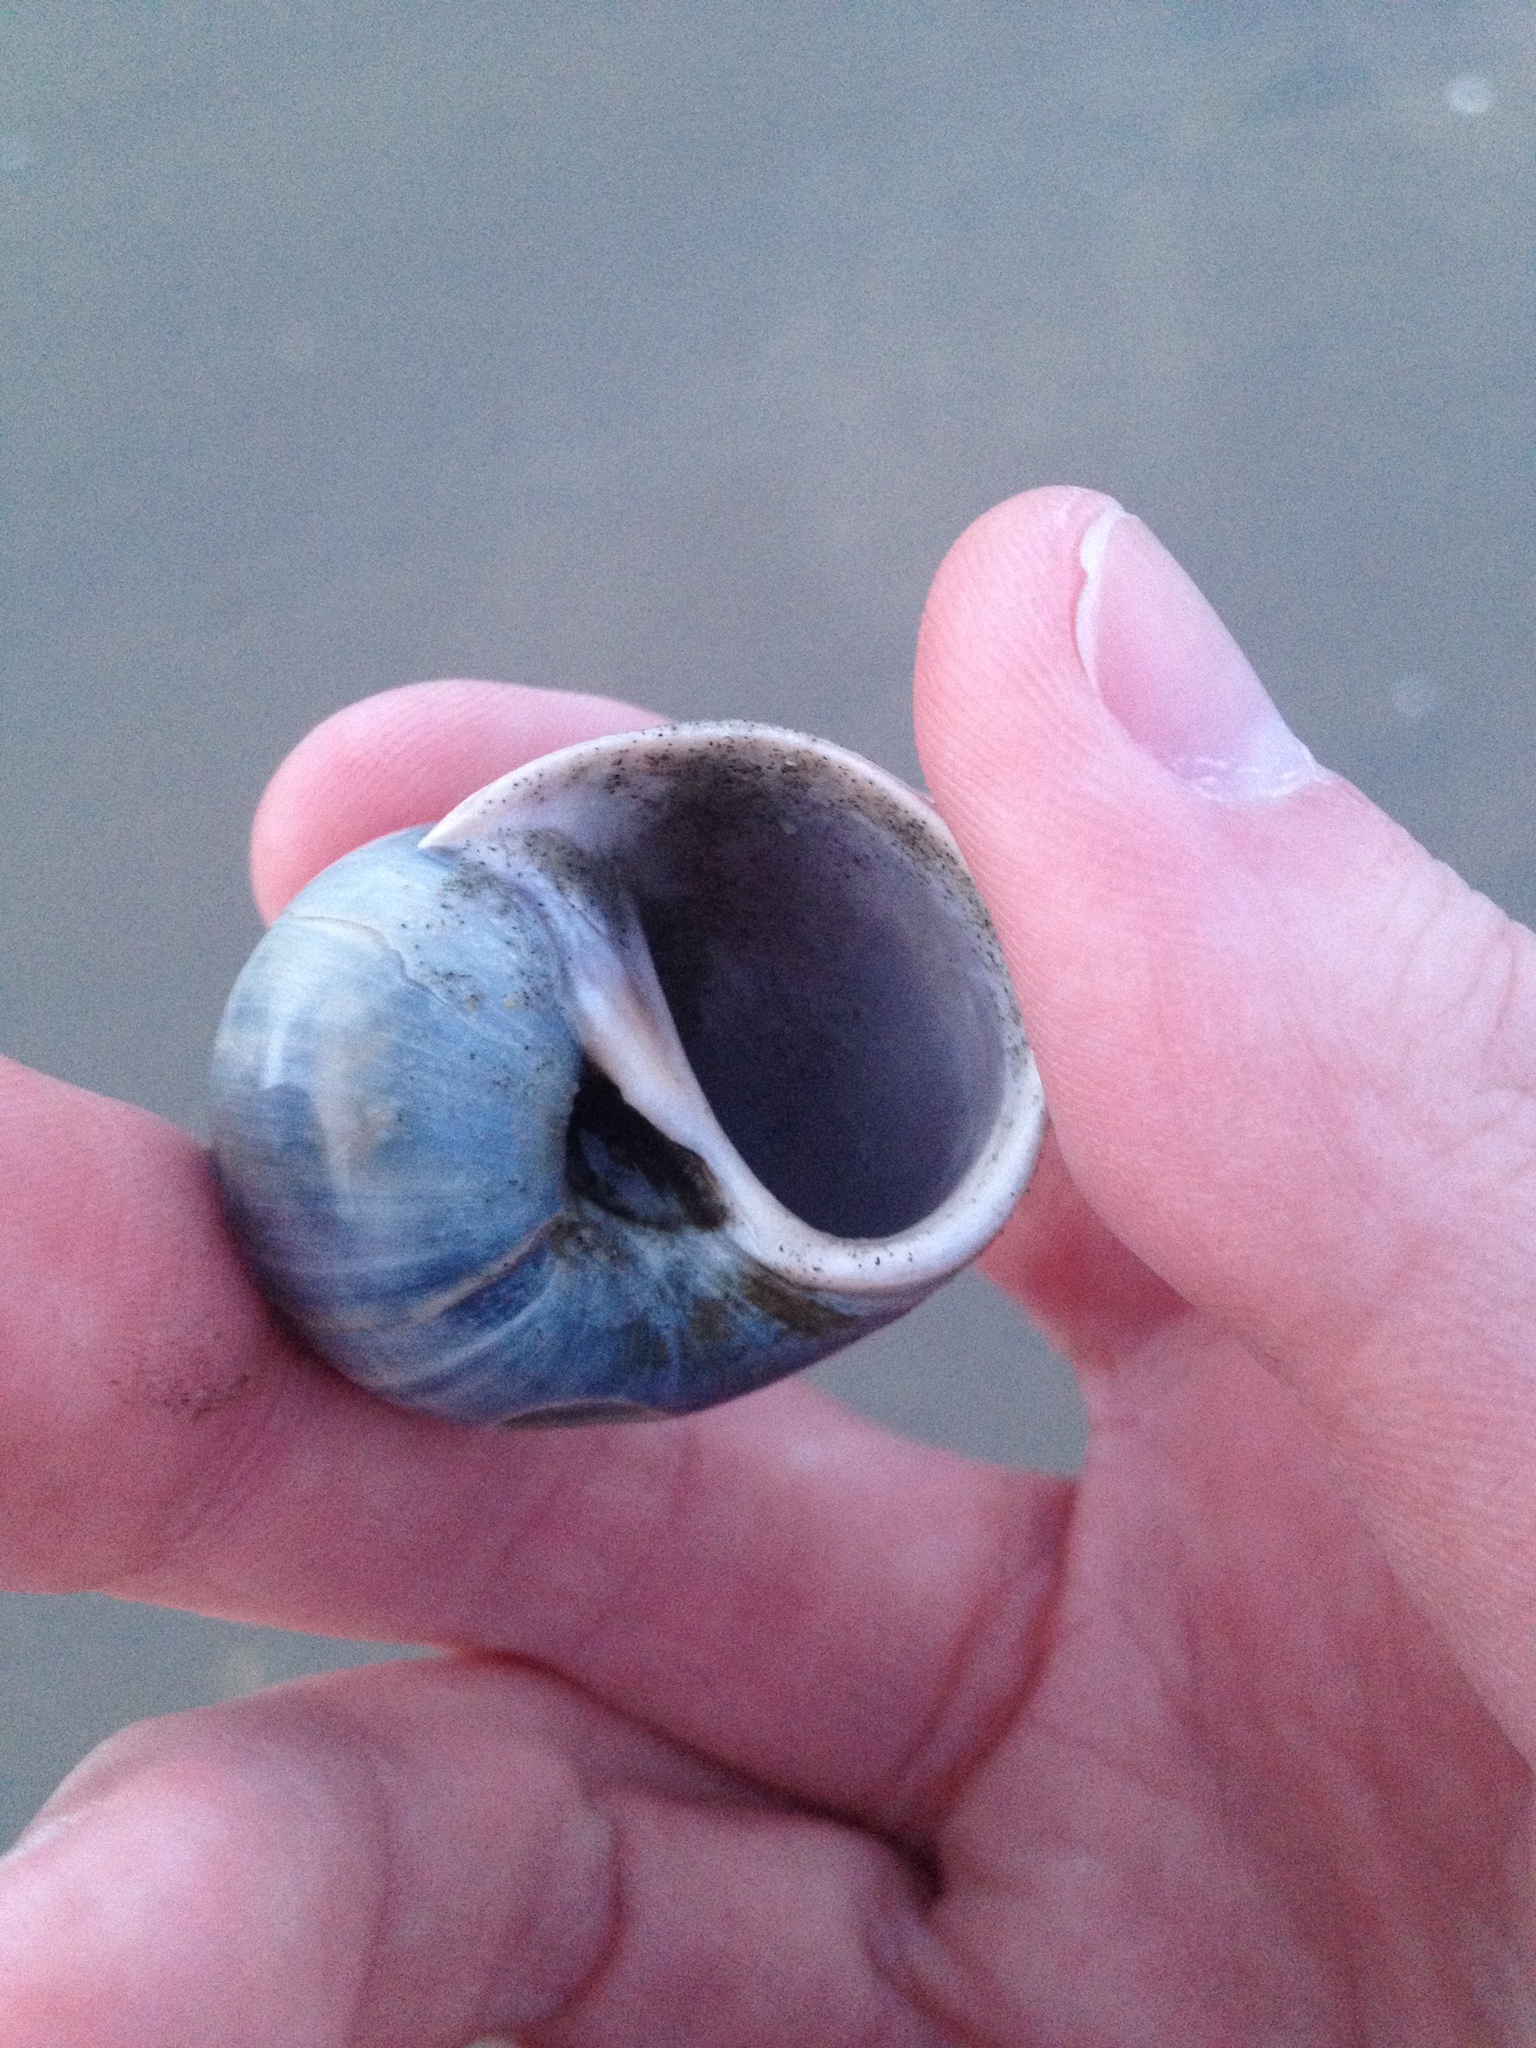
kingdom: Animalia
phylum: Mollusca
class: Gastropoda
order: Littorinimorpha
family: Naticidae
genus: Euspira
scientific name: Euspira heros
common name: Common northern moonsnail
